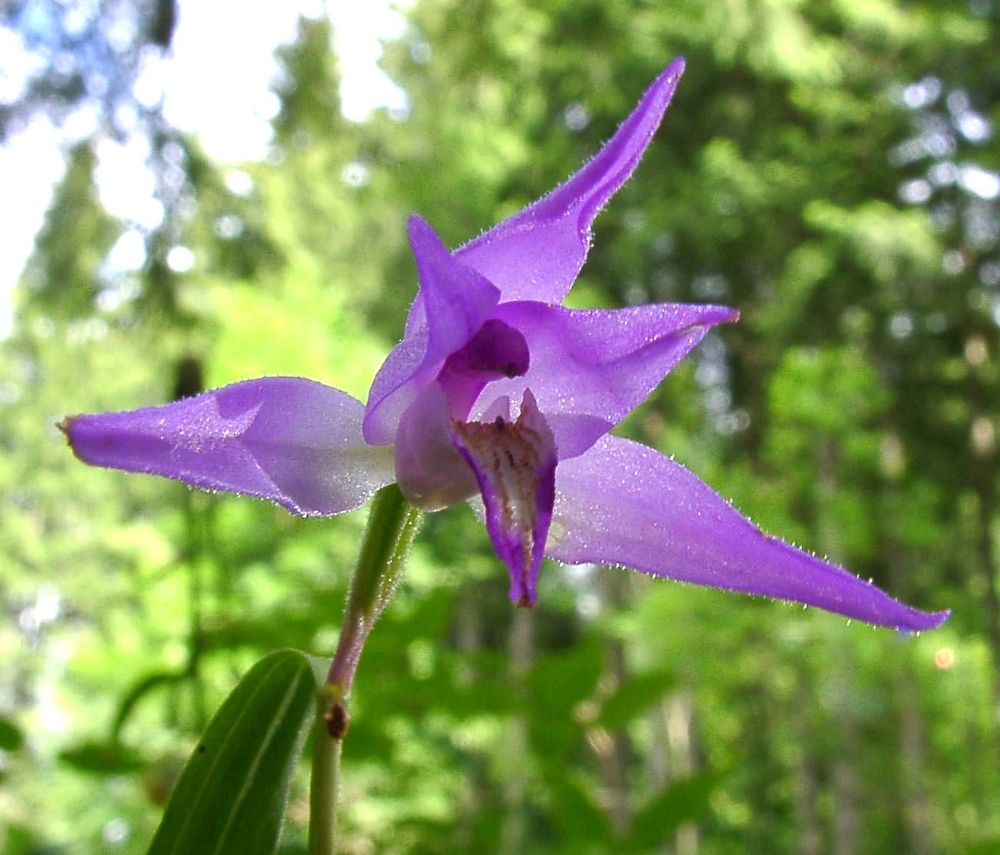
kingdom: Plantae
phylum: Tracheophyta
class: Liliopsida
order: Asparagales
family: Orchidaceae
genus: Cephalanthera
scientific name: Cephalanthera rubra
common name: Red helleborine
